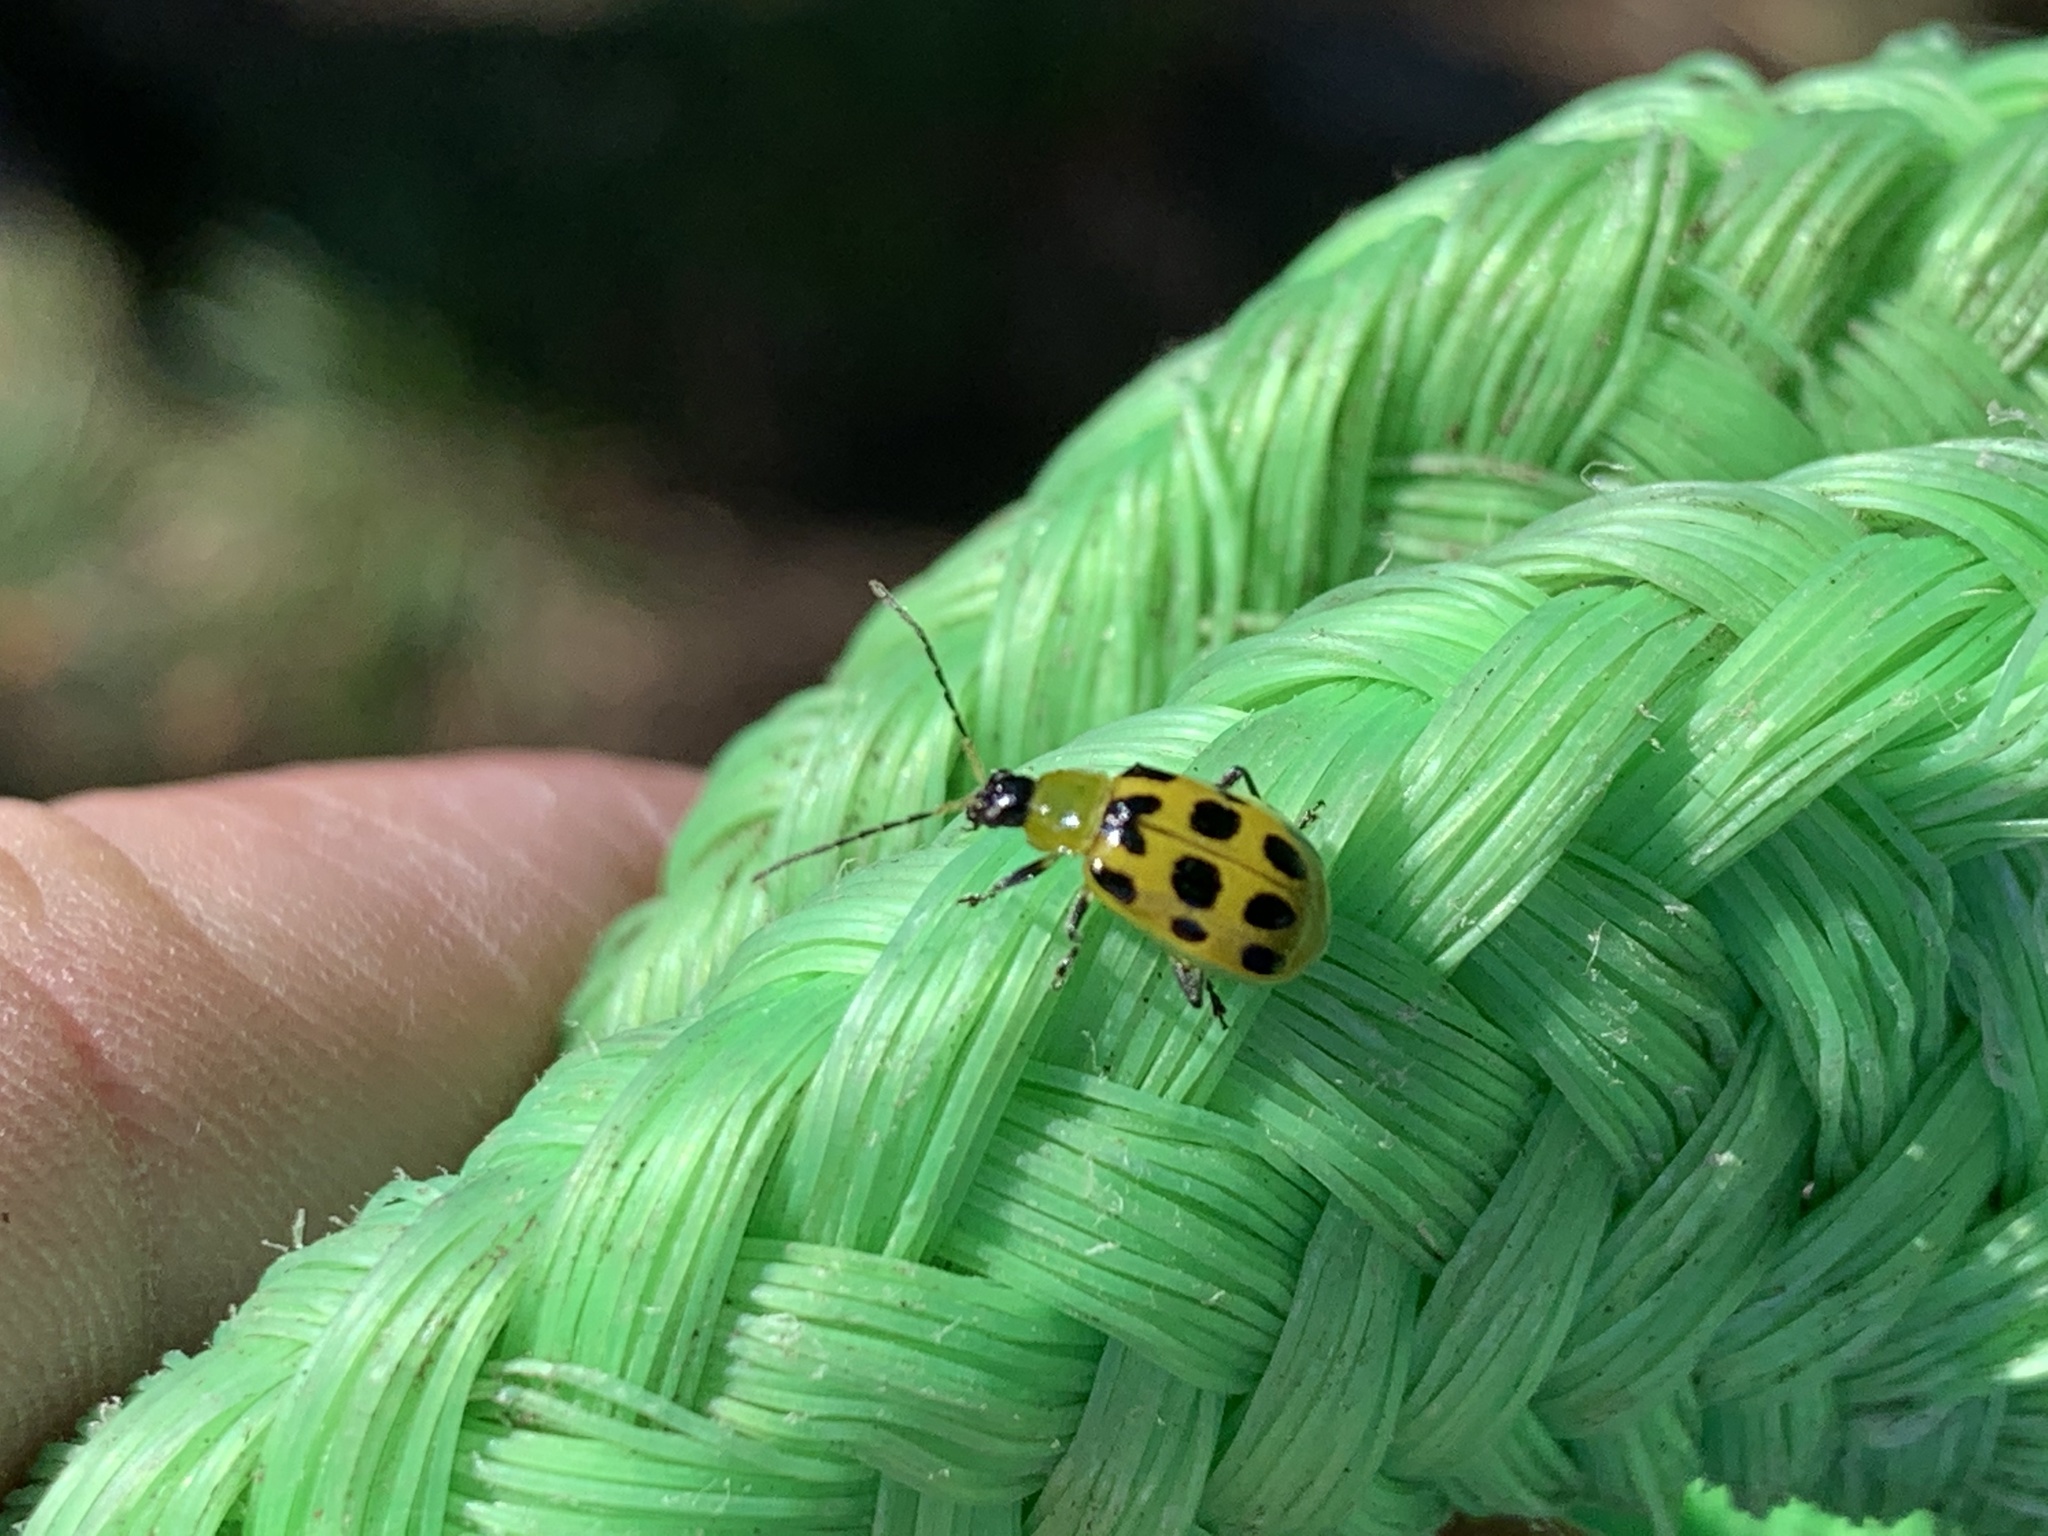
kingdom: Animalia
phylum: Arthropoda
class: Insecta
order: Coleoptera
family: Chrysomelidae
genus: Diabrotica
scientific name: Diabrotica undecimpunctata
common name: Spotted cucumber beetle
